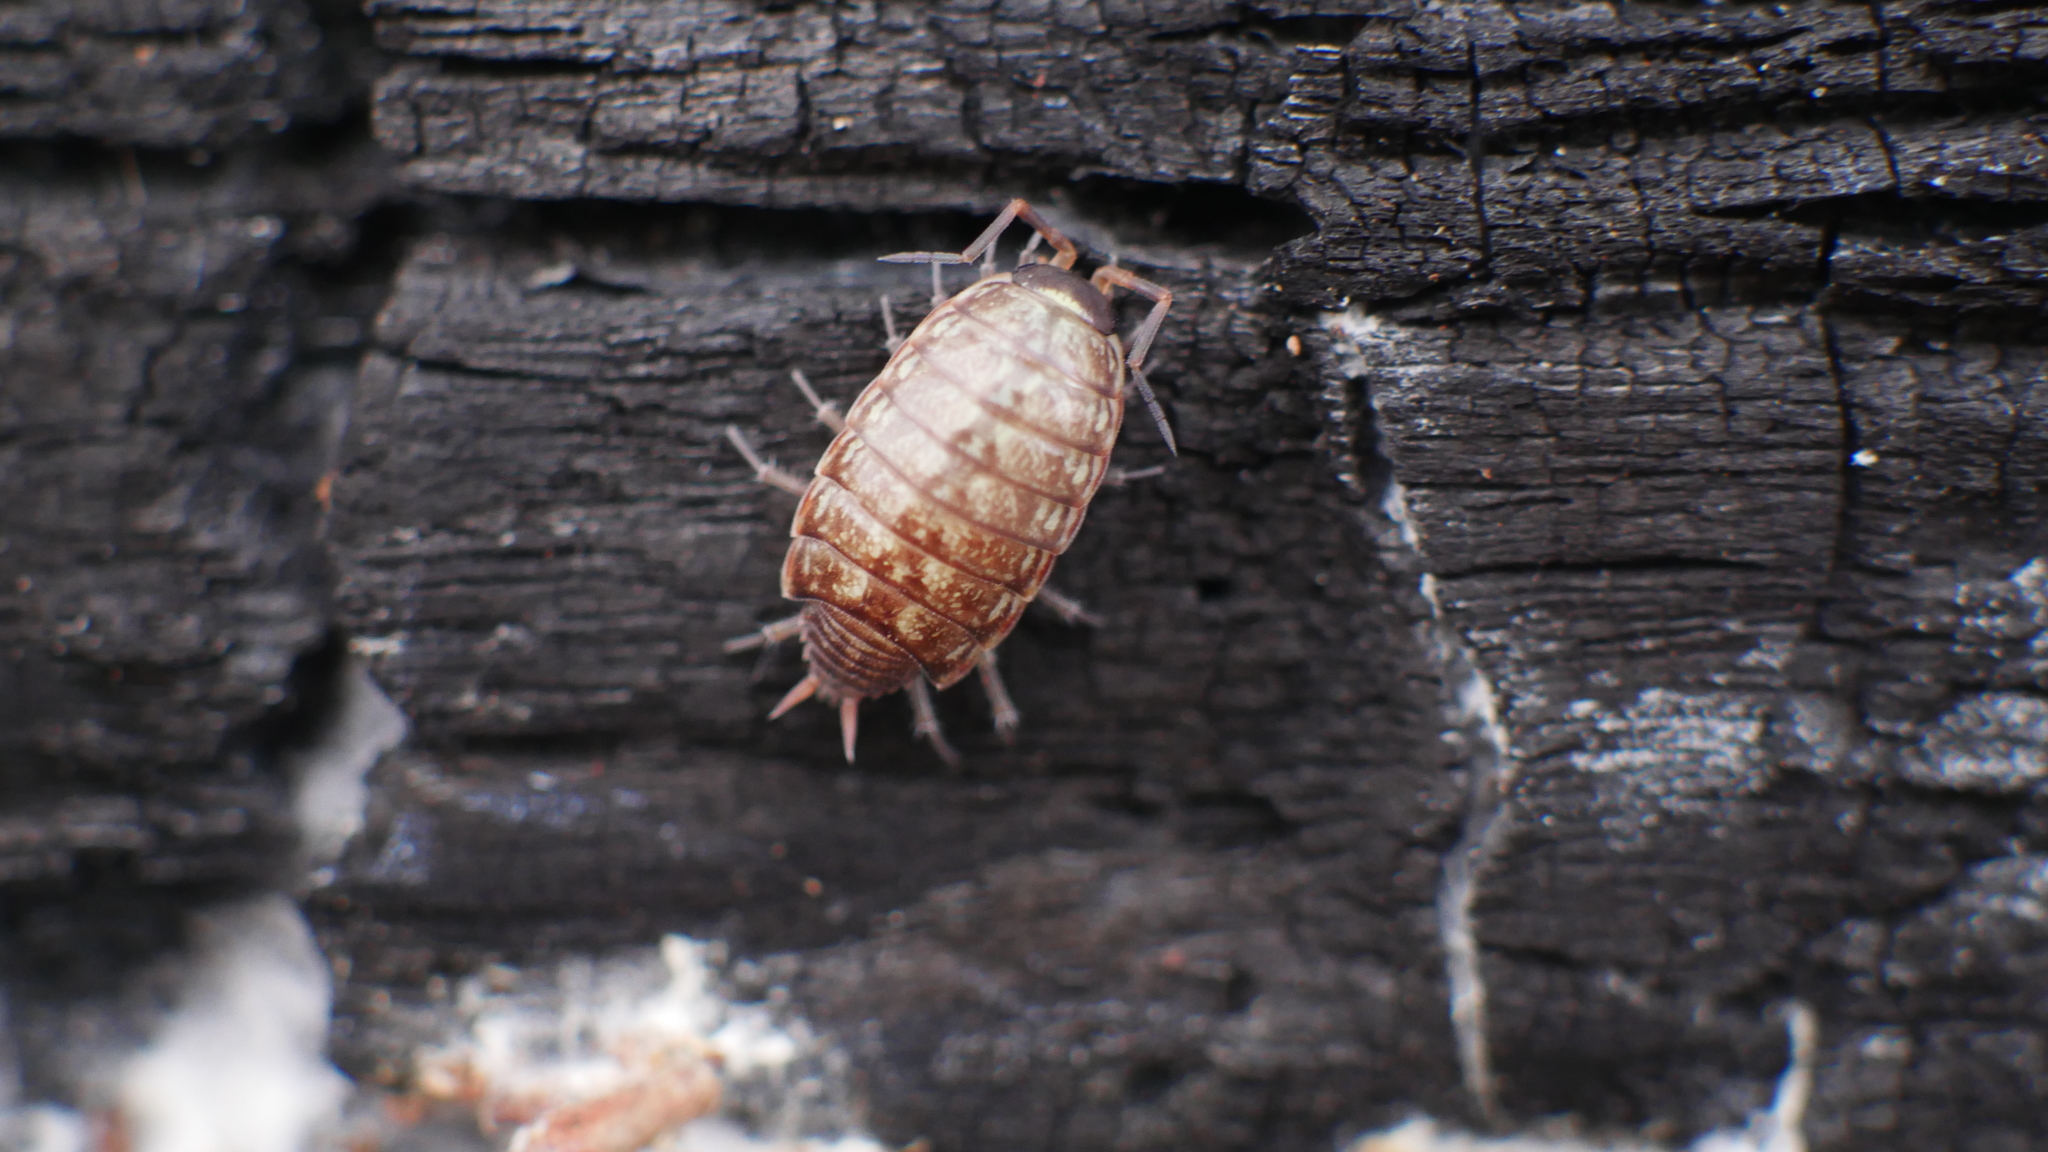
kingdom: Animalia
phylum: Arthropoda
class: Malacostraca
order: Isopoda
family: Philosciidae
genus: Philoscia
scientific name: Philoscia muscorum
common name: Common striped woodlouse
